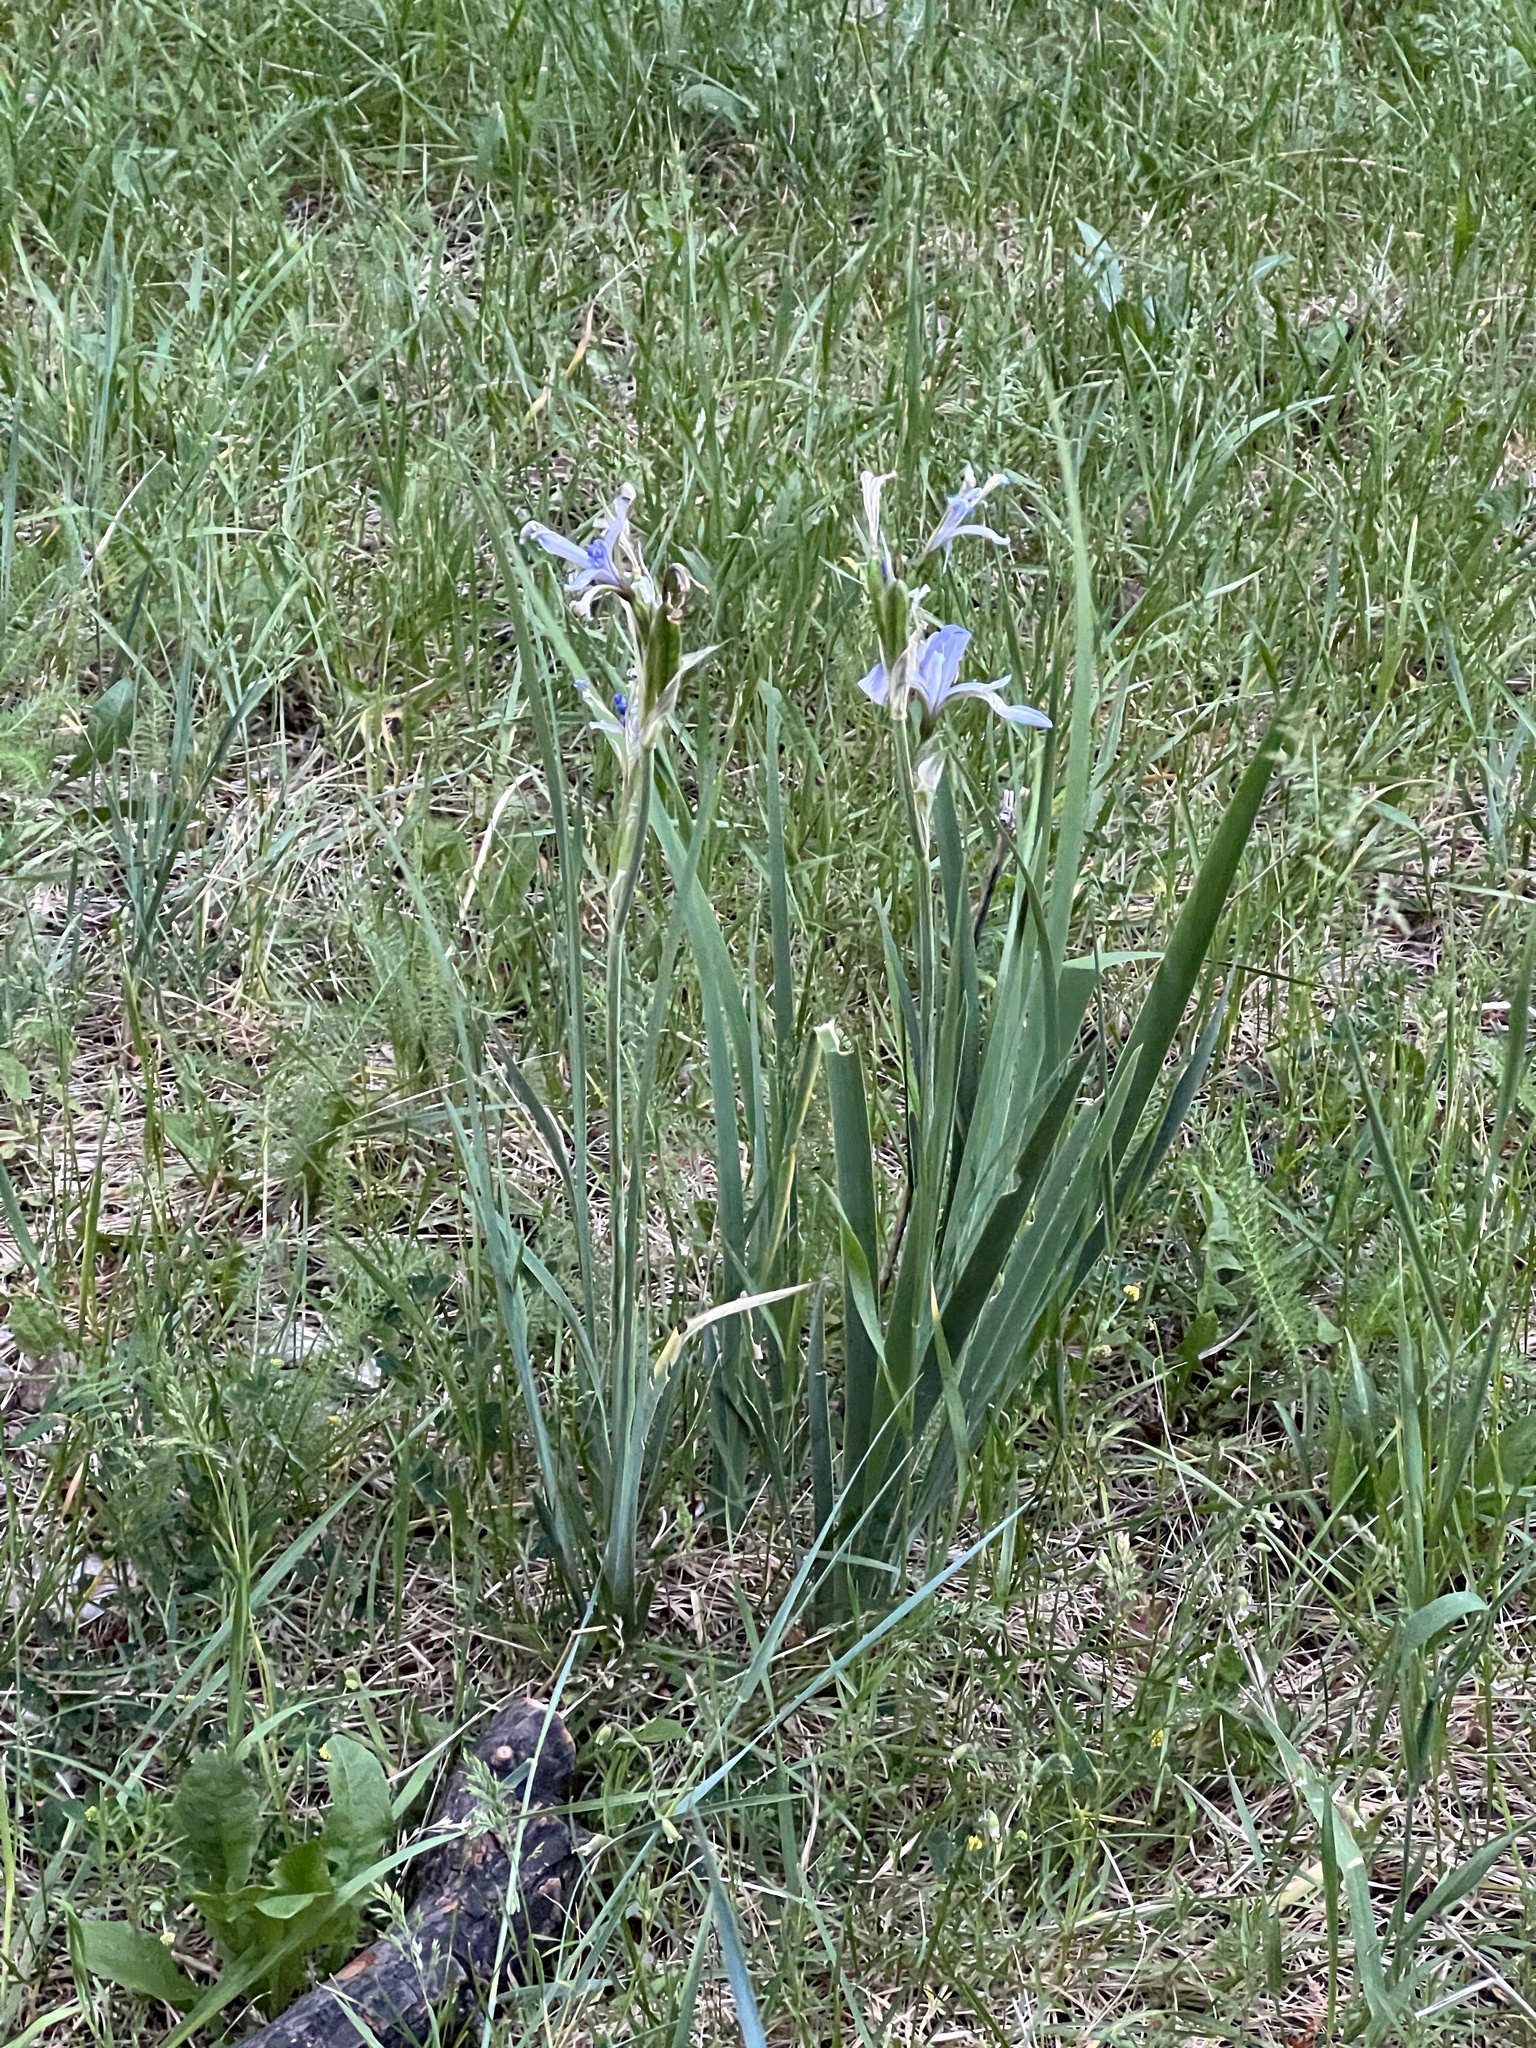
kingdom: Plantae
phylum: Tracheophyta
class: Liliopsida
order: Asparagales
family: Iridaceae
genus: Iris
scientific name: Iris missouriensis
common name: Rocky mountain iris
